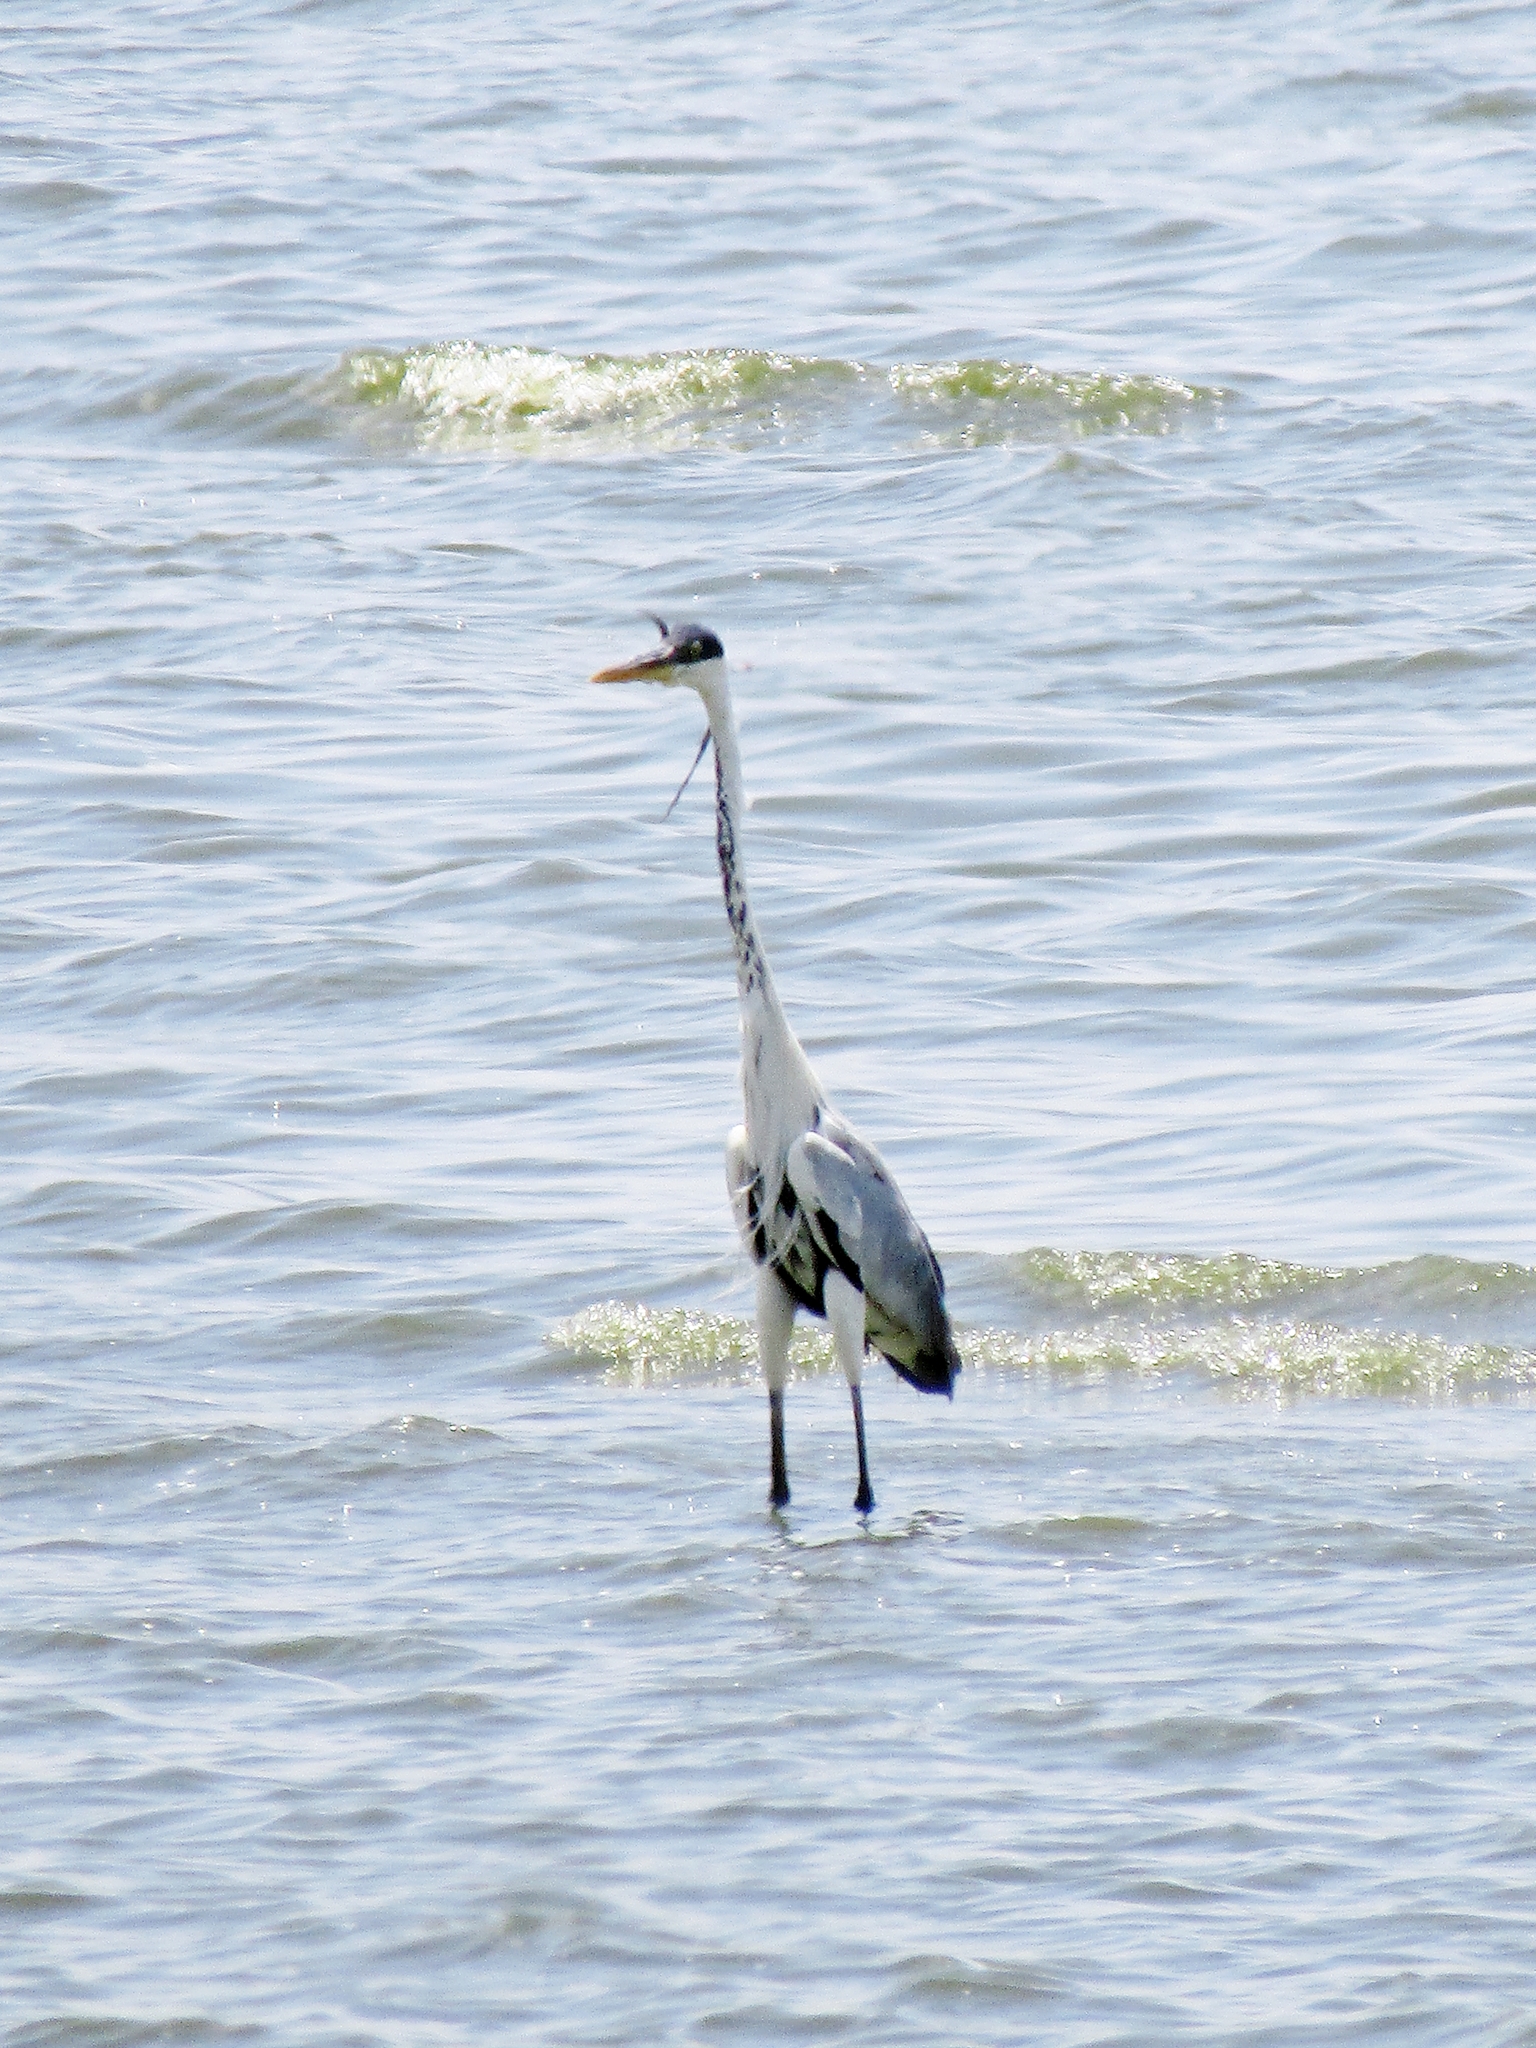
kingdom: Animalia
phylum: Chordata
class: Aves
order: Pelecaniformes
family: Ardeidae
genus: Ardea
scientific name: Ardea cocoi
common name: Cocoi heron
